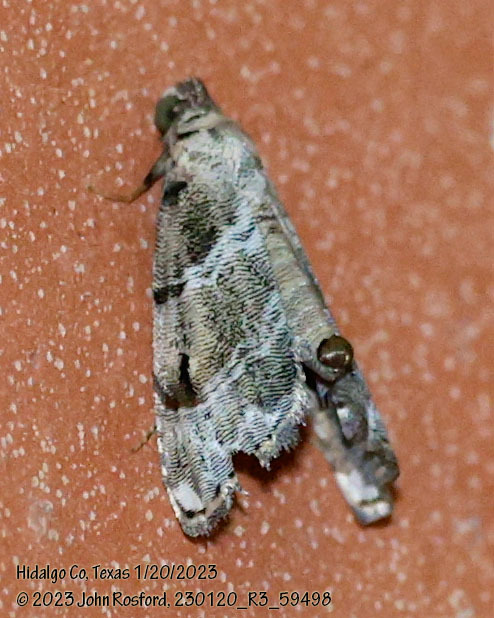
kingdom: Animalia
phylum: Arthropoda
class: Insecta
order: Lepidoptera
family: Noctuidae
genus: Abablemma
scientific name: Abablemma bilineata
